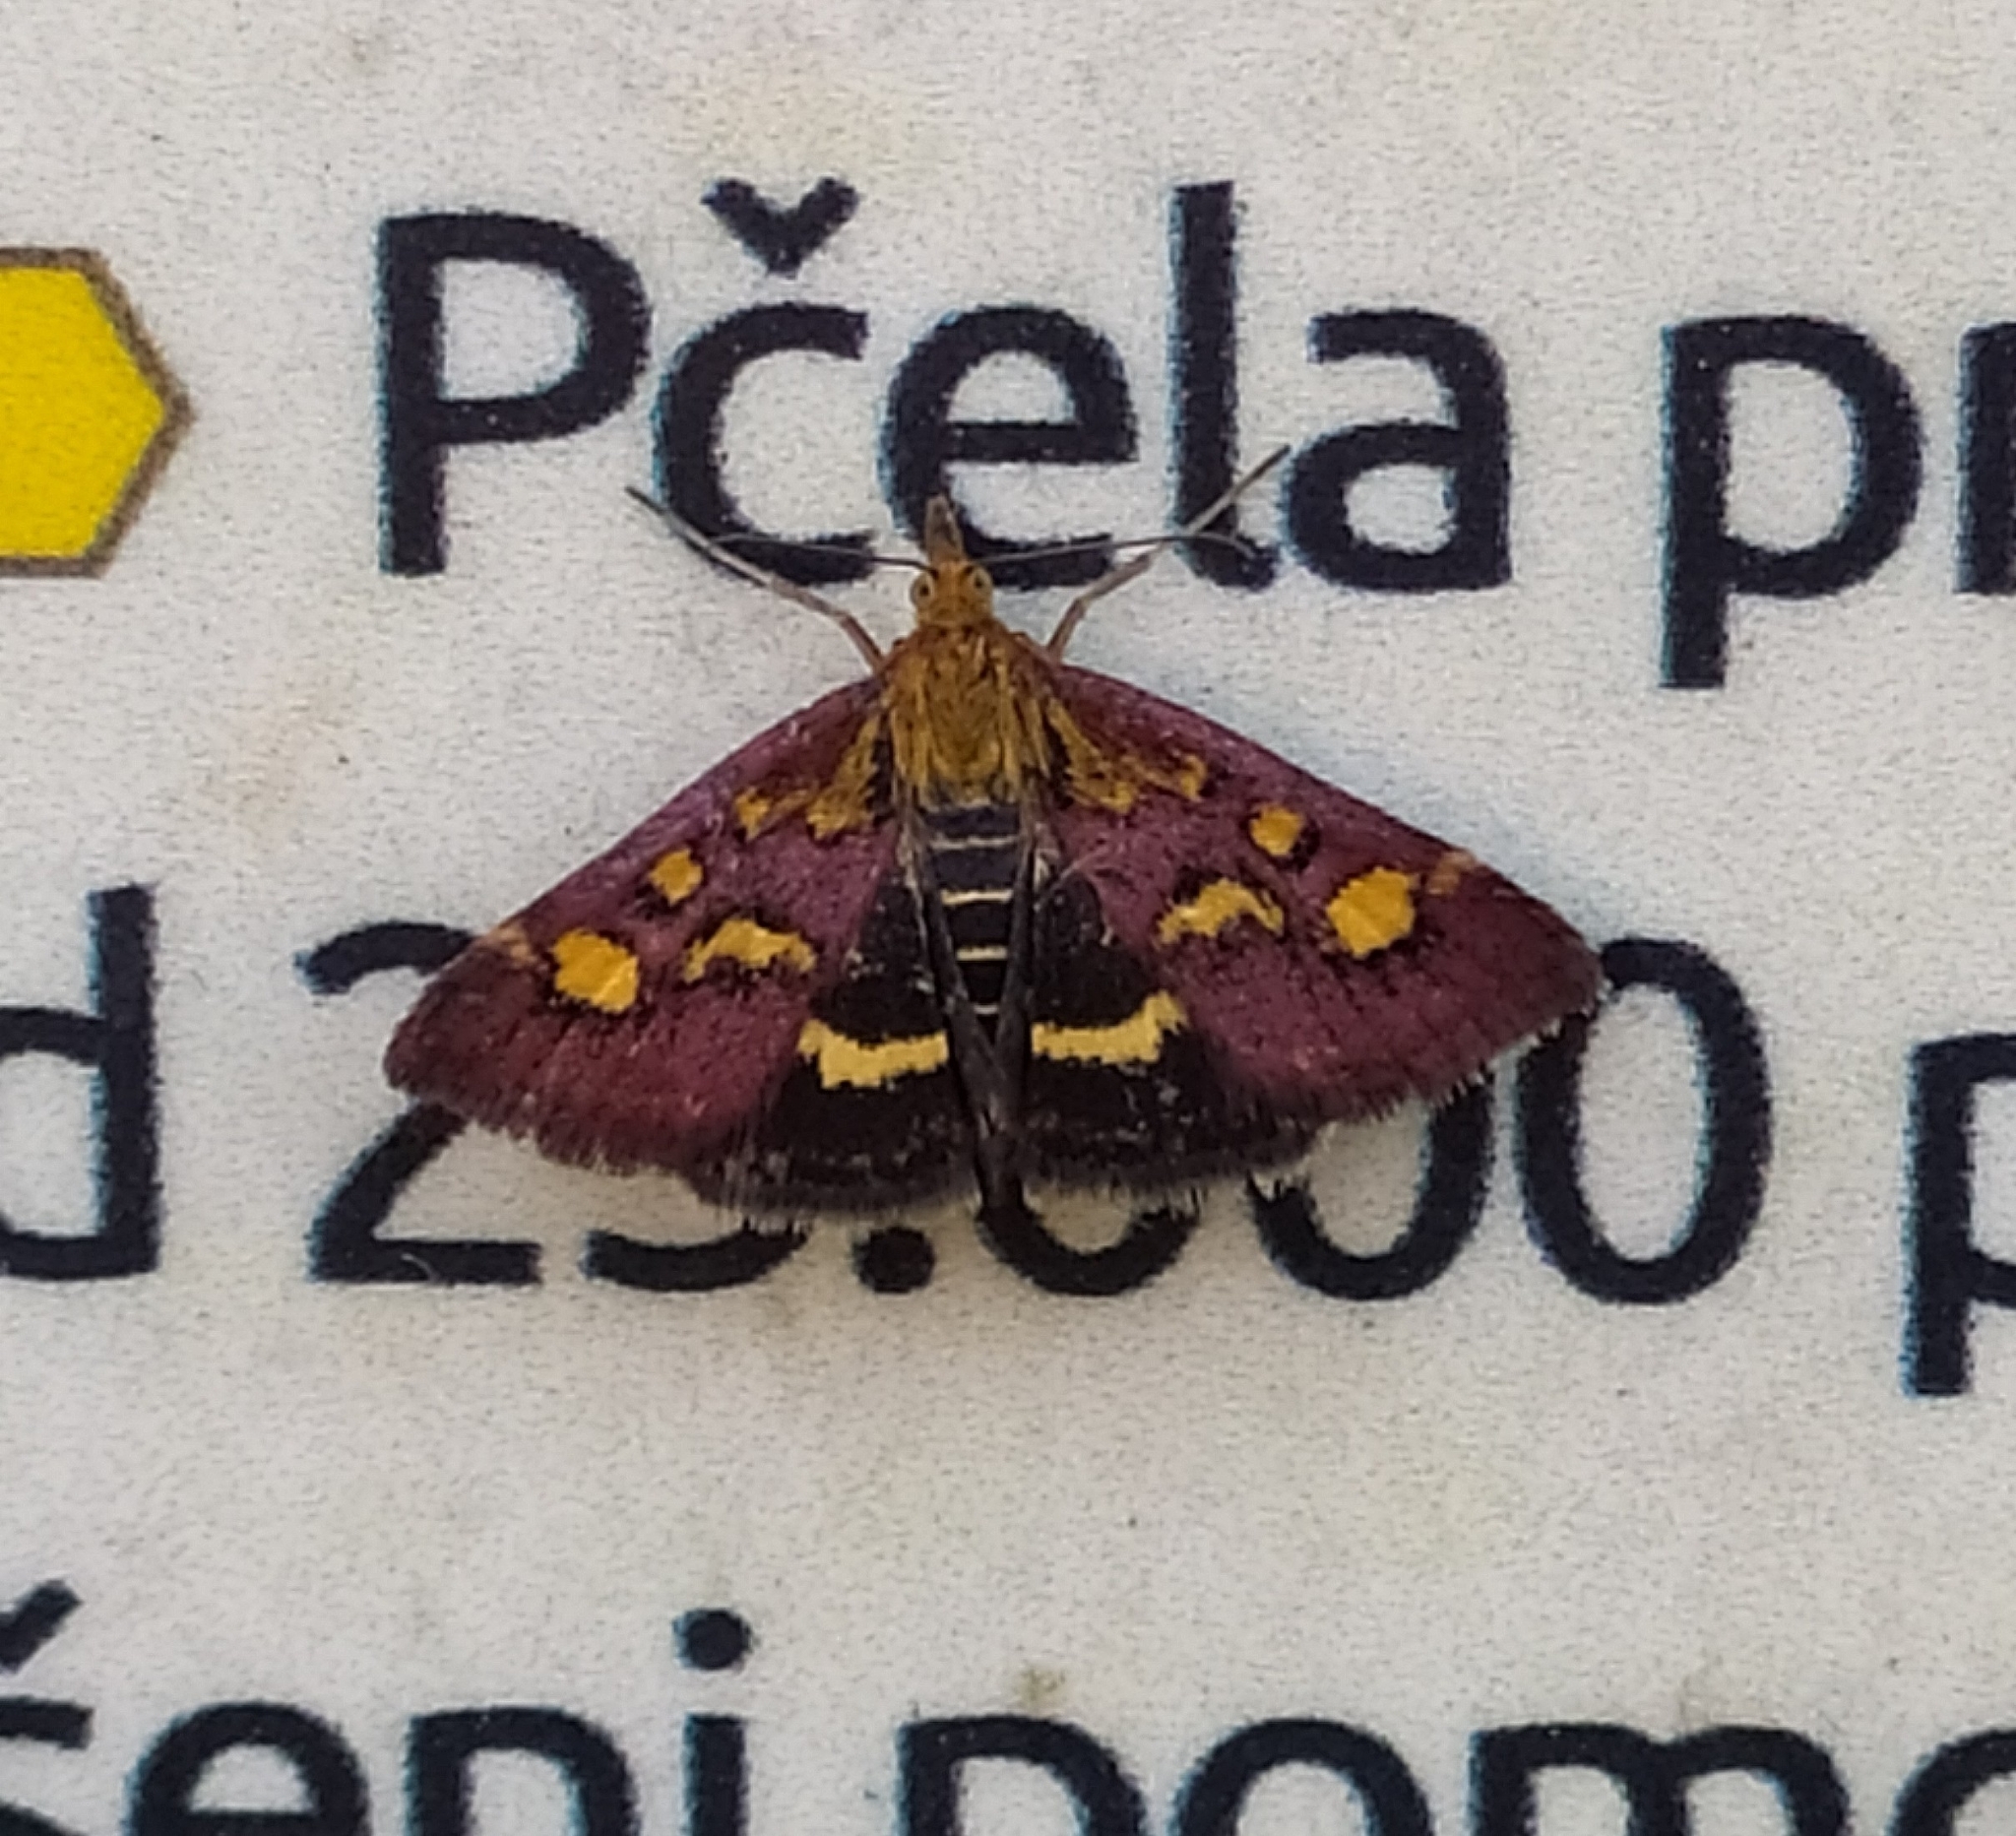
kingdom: Animalia
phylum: Arthropoda
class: Insecta
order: Lepidoptera
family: Crambidae
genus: Pyrausta
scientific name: Pyrausta purpuralis
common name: Common purple & gold
